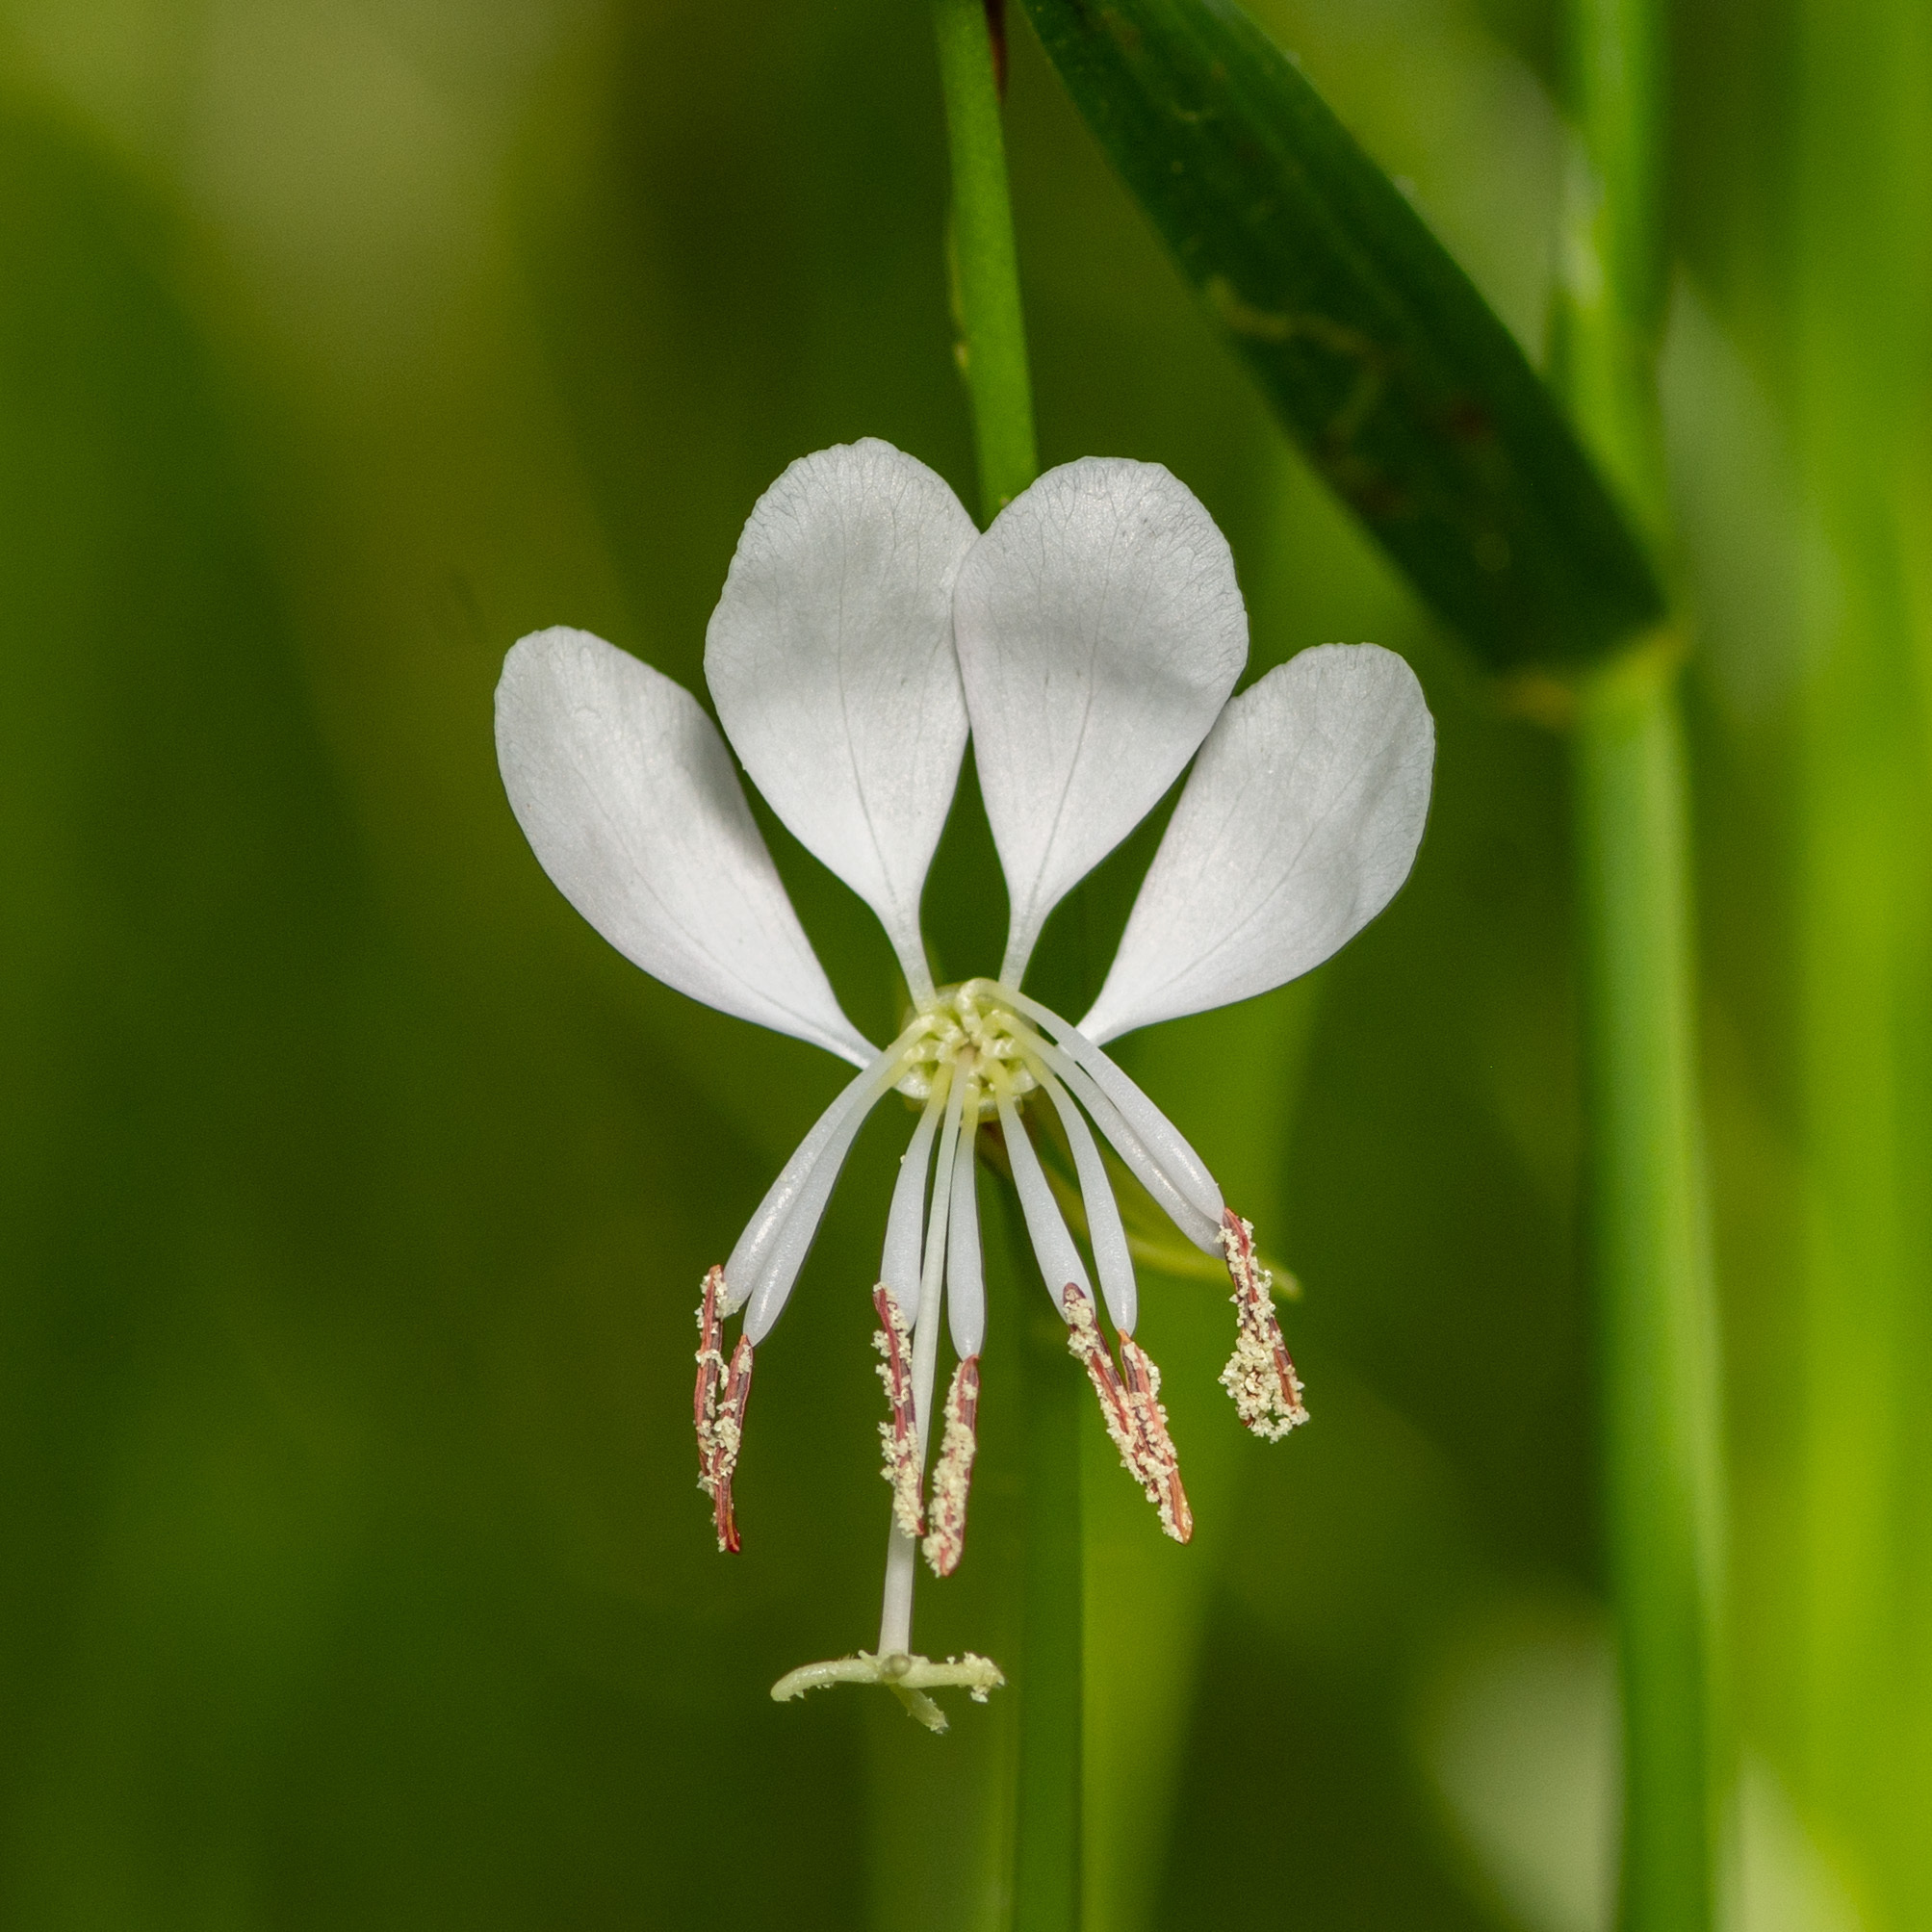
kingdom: Plantae
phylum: Tracheophyta
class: Magnoliopsida
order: Myrtales
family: Onagraceae
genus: Oenothera
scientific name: Oenothera suffulta
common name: Kisses
